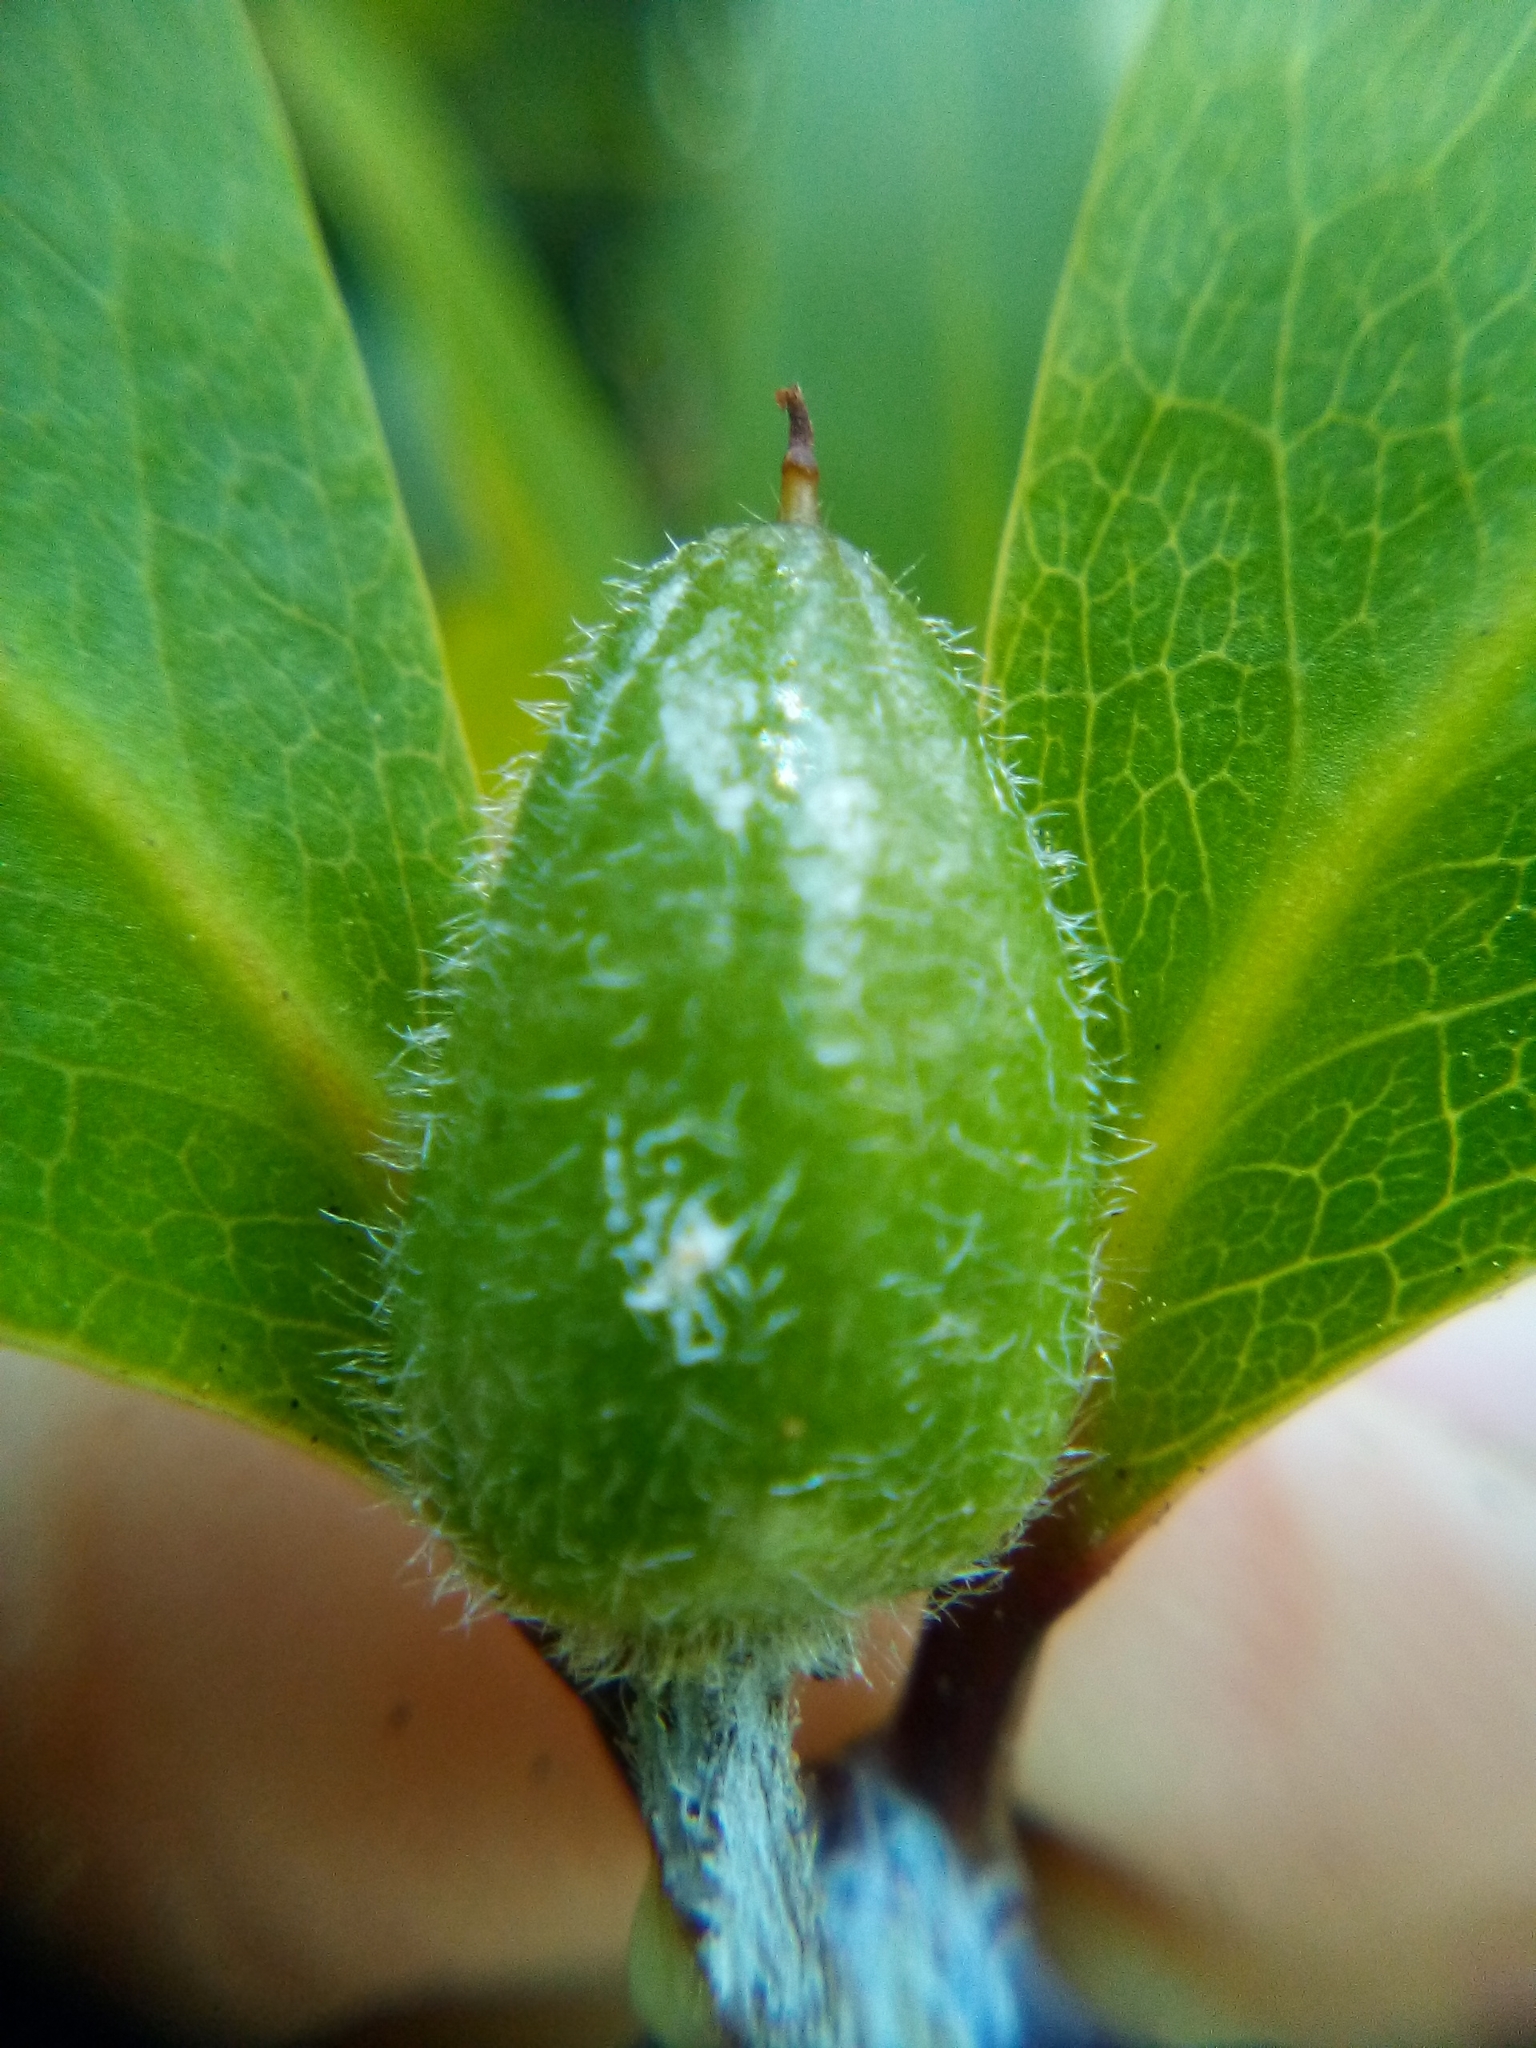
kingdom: Plantae
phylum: Tracheophyta
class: Magnoliopsida
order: Apiales
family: Pittosporaceae
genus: Pittosporum
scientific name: Pittosporum cornifolium
